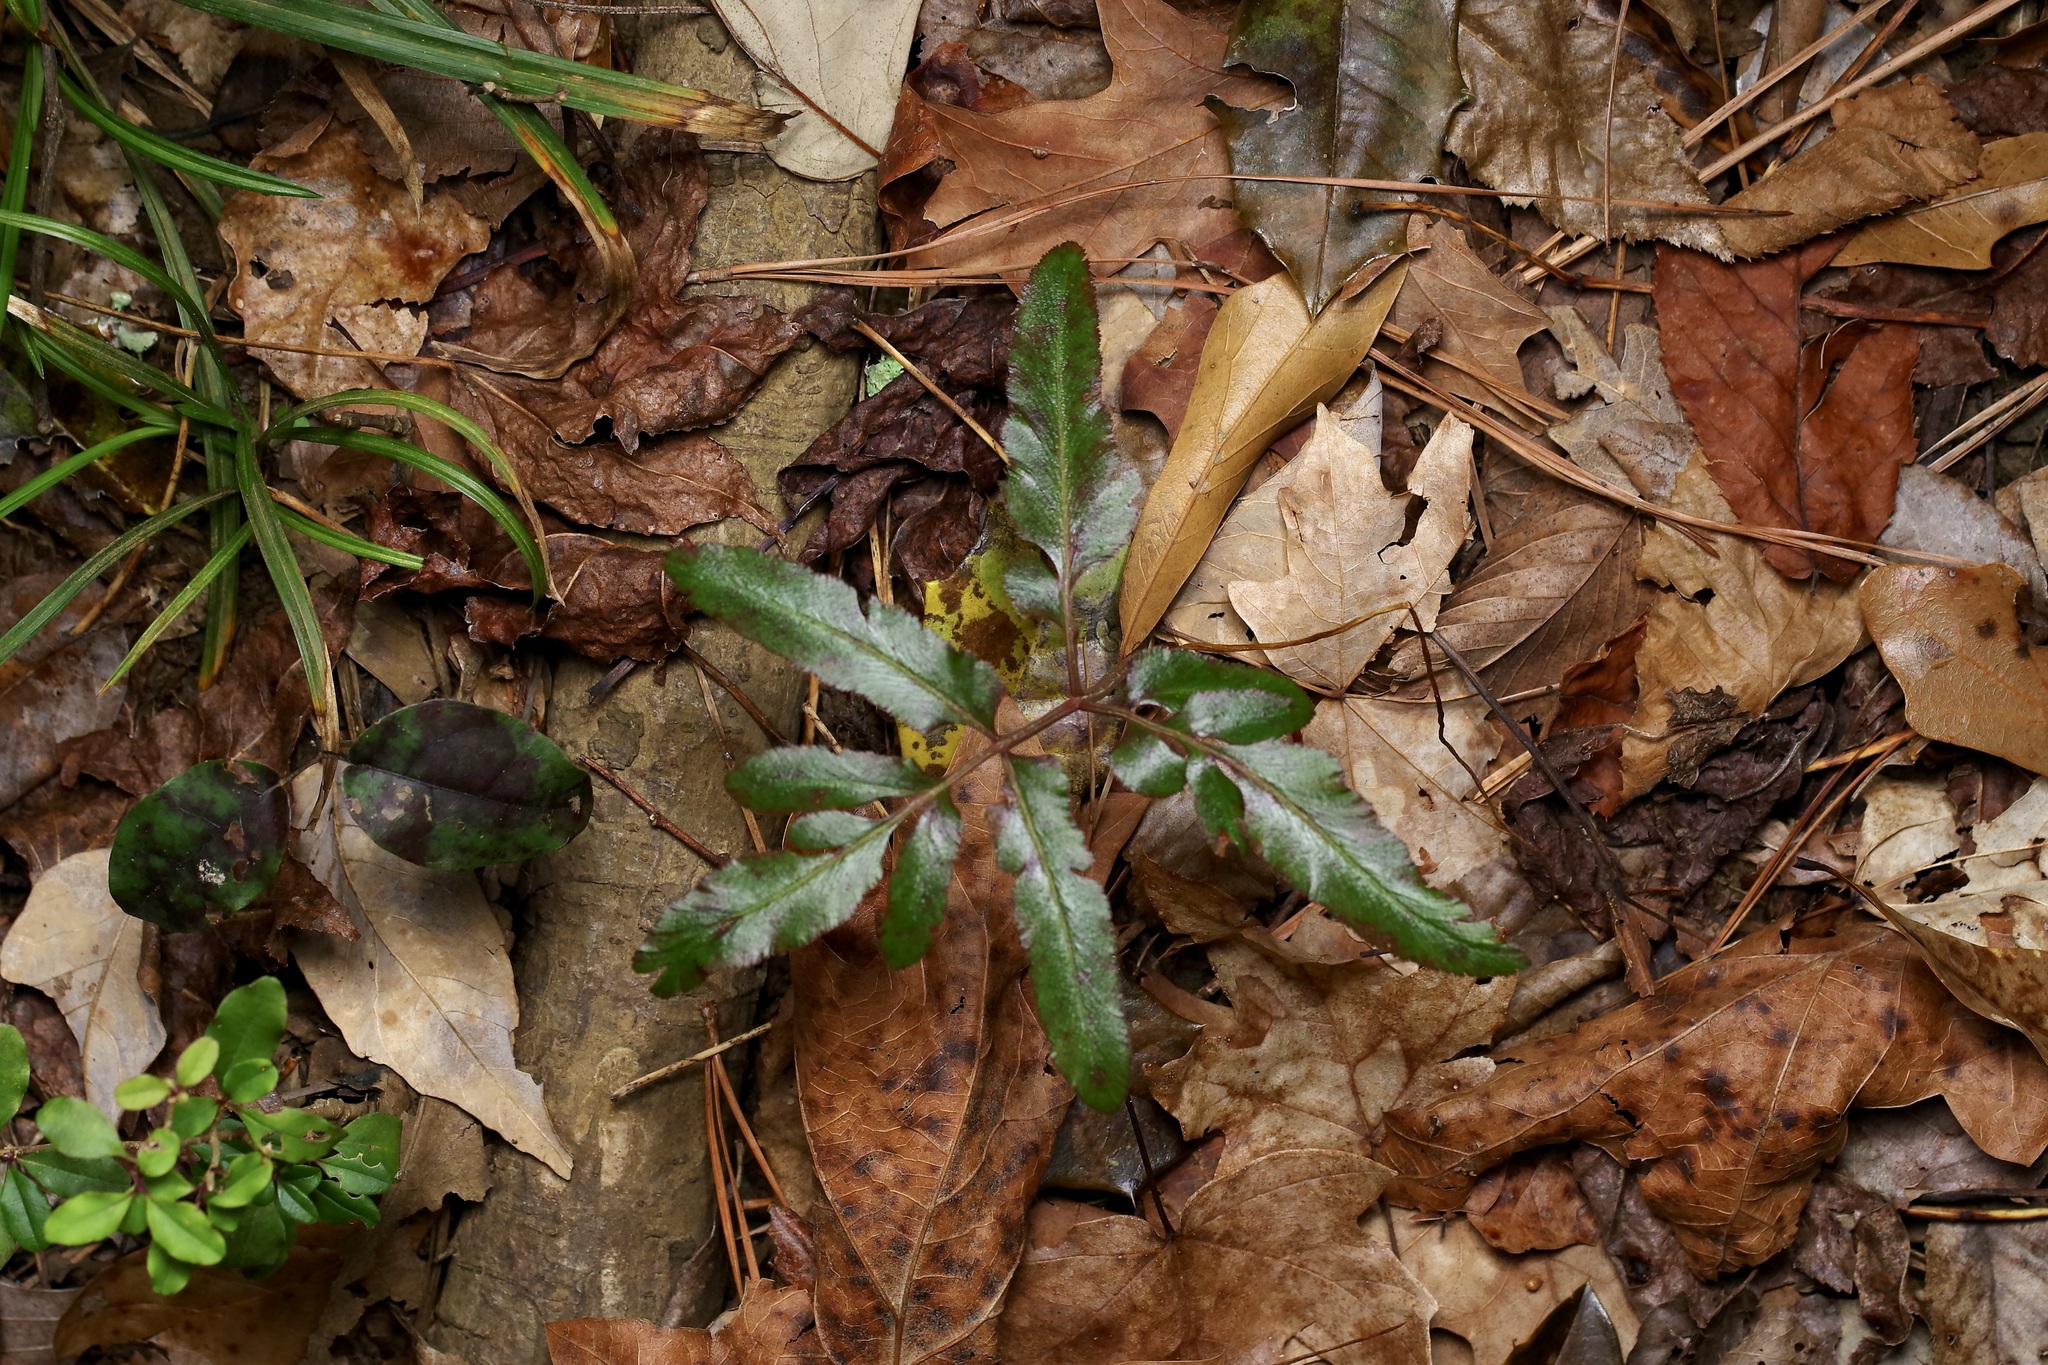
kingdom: Plantae
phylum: Tracheophyta
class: Polypodiopsida
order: Ophioglossales
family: Ophioglossaceae
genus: Sceptridium
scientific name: Sceptridium biternatum
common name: Sparse-lobed grapefern
